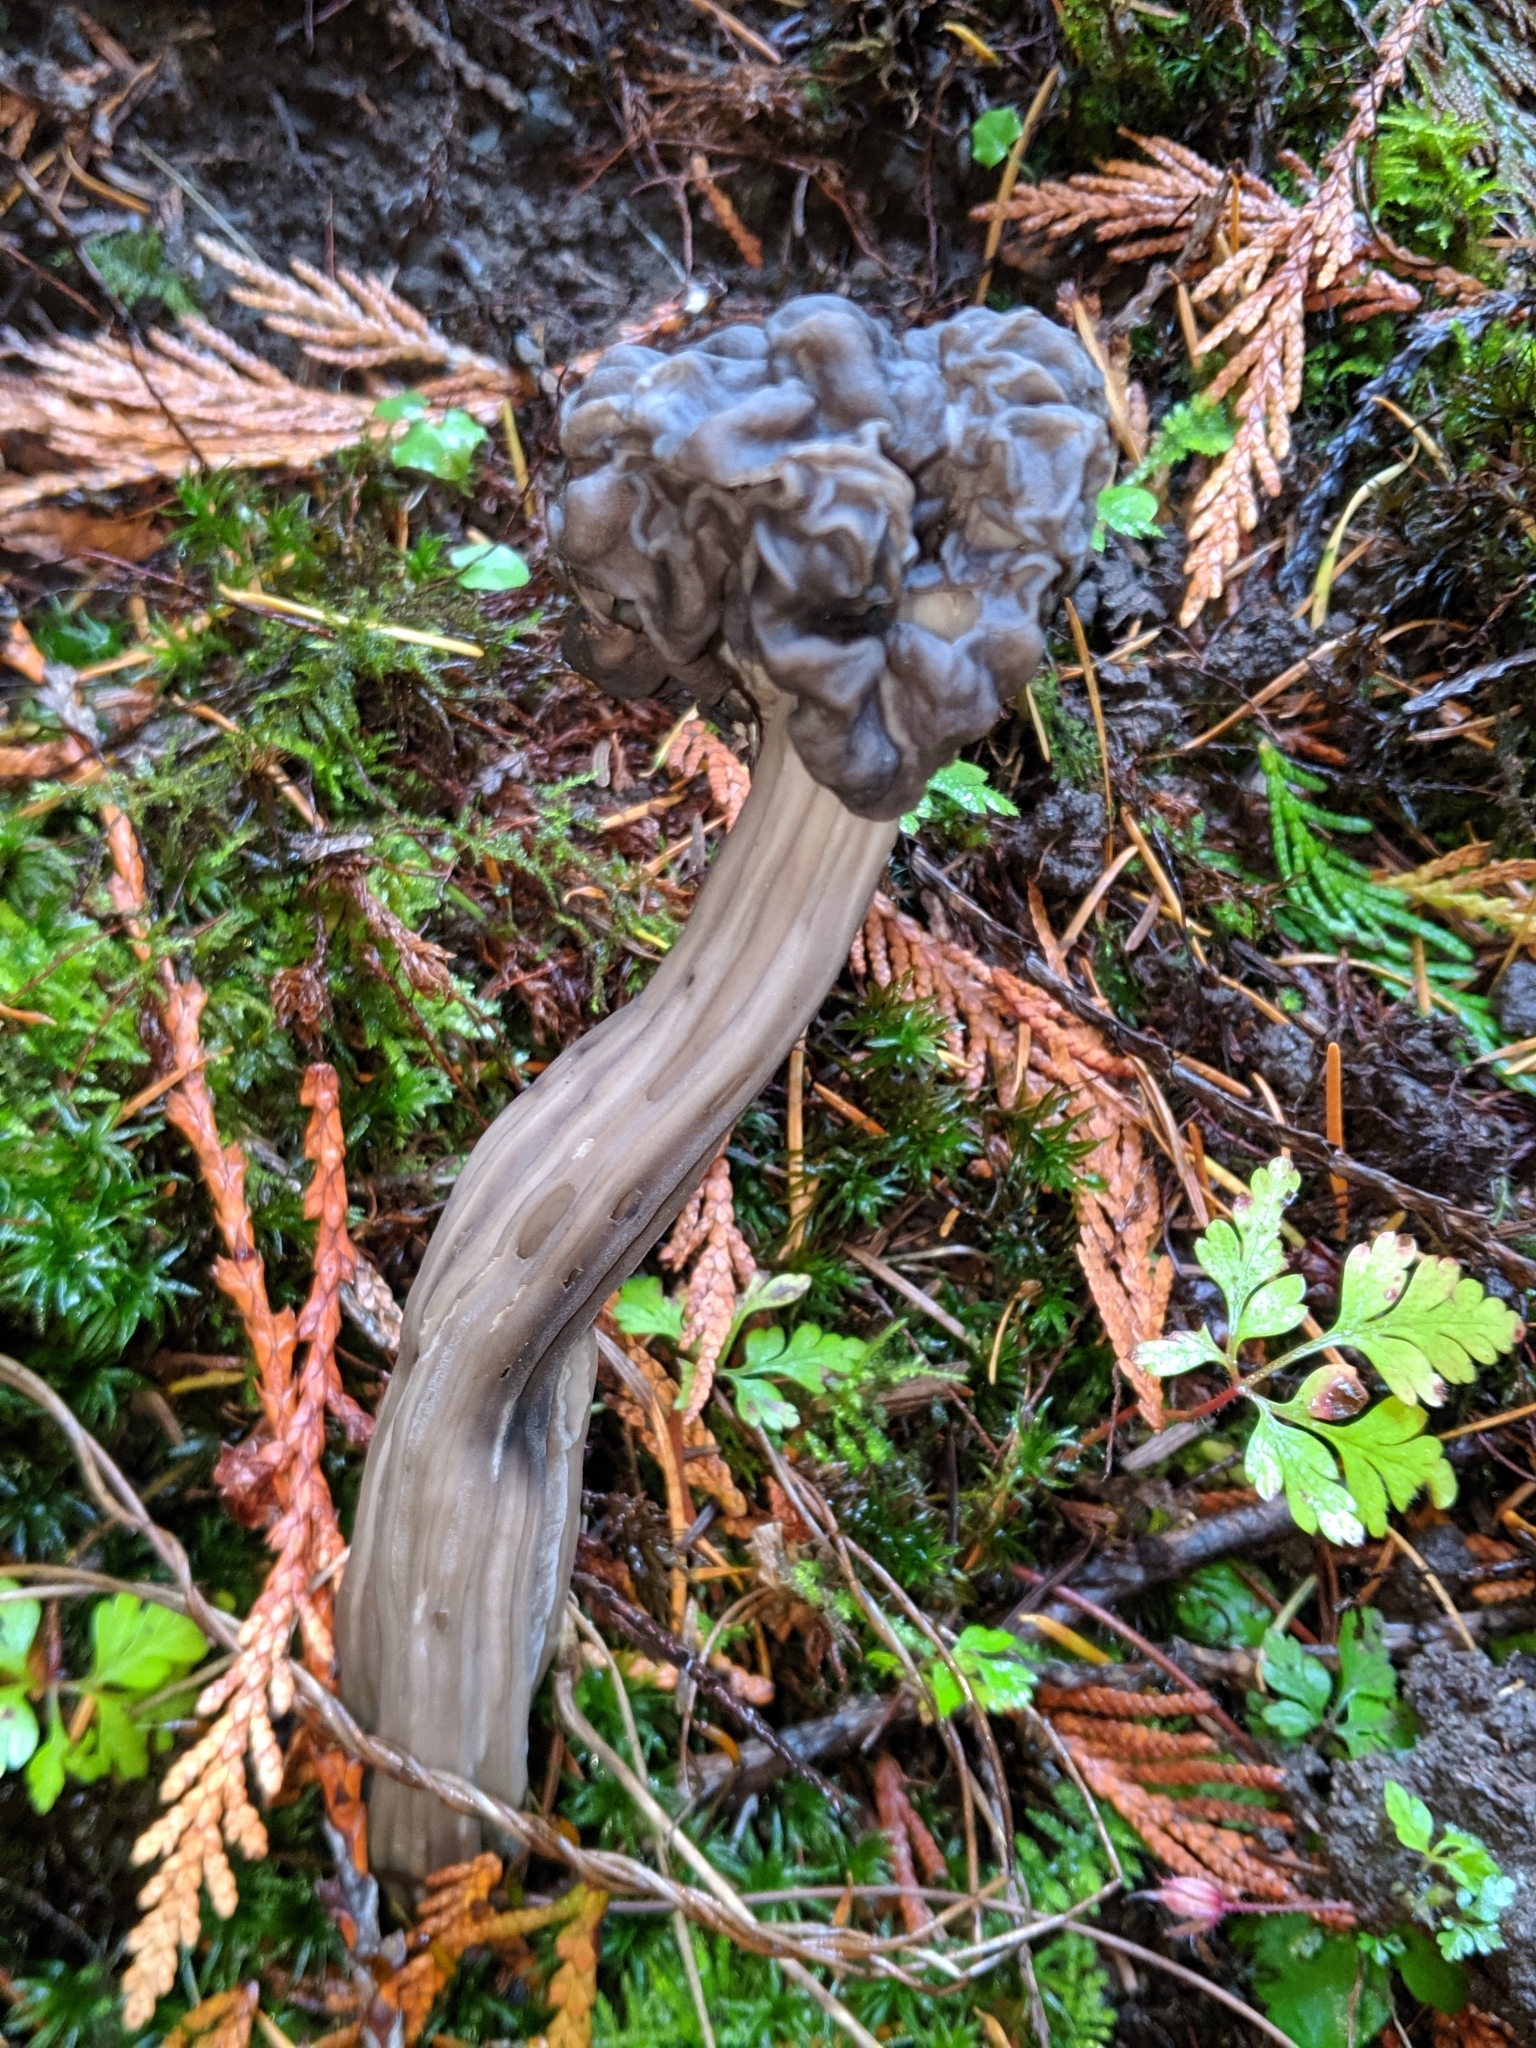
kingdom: Fungi
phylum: Ascomycota
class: Pezizomycetes
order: Pezizales
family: Helvellaceae
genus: Helvella
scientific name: Helvella vespertina
